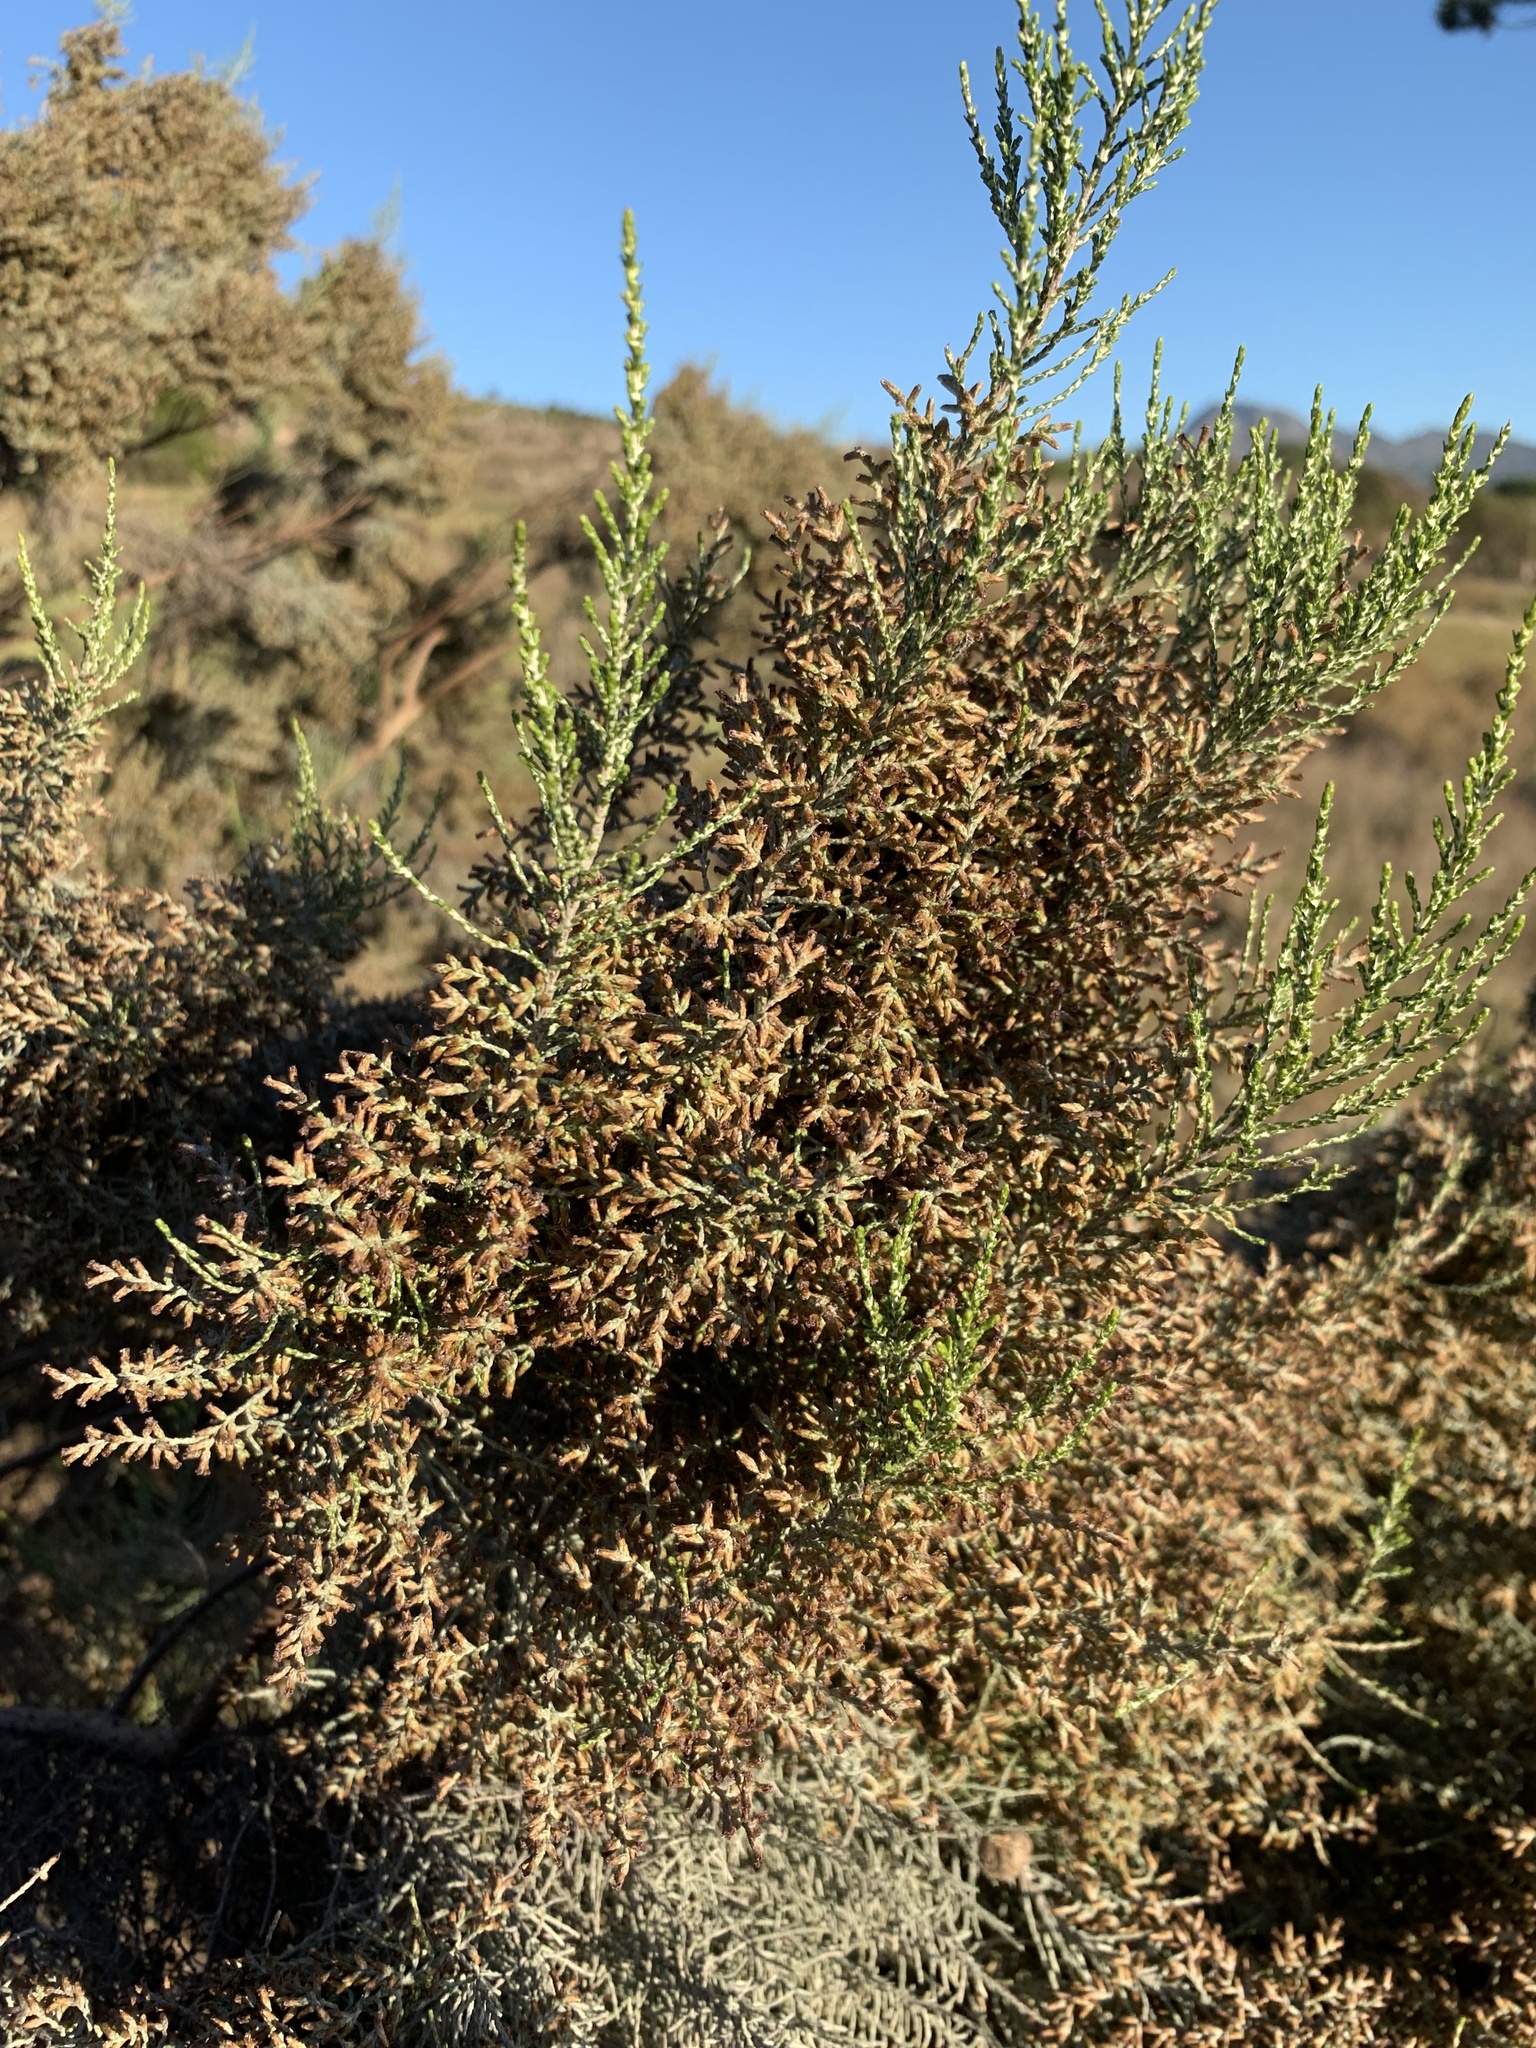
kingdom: Plantae
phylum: Tracheophyta
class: Magnoliopsida
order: Asterales
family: Asteraceae
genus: Dicerothamnus
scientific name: Dicerothamnus rhinocerotis
